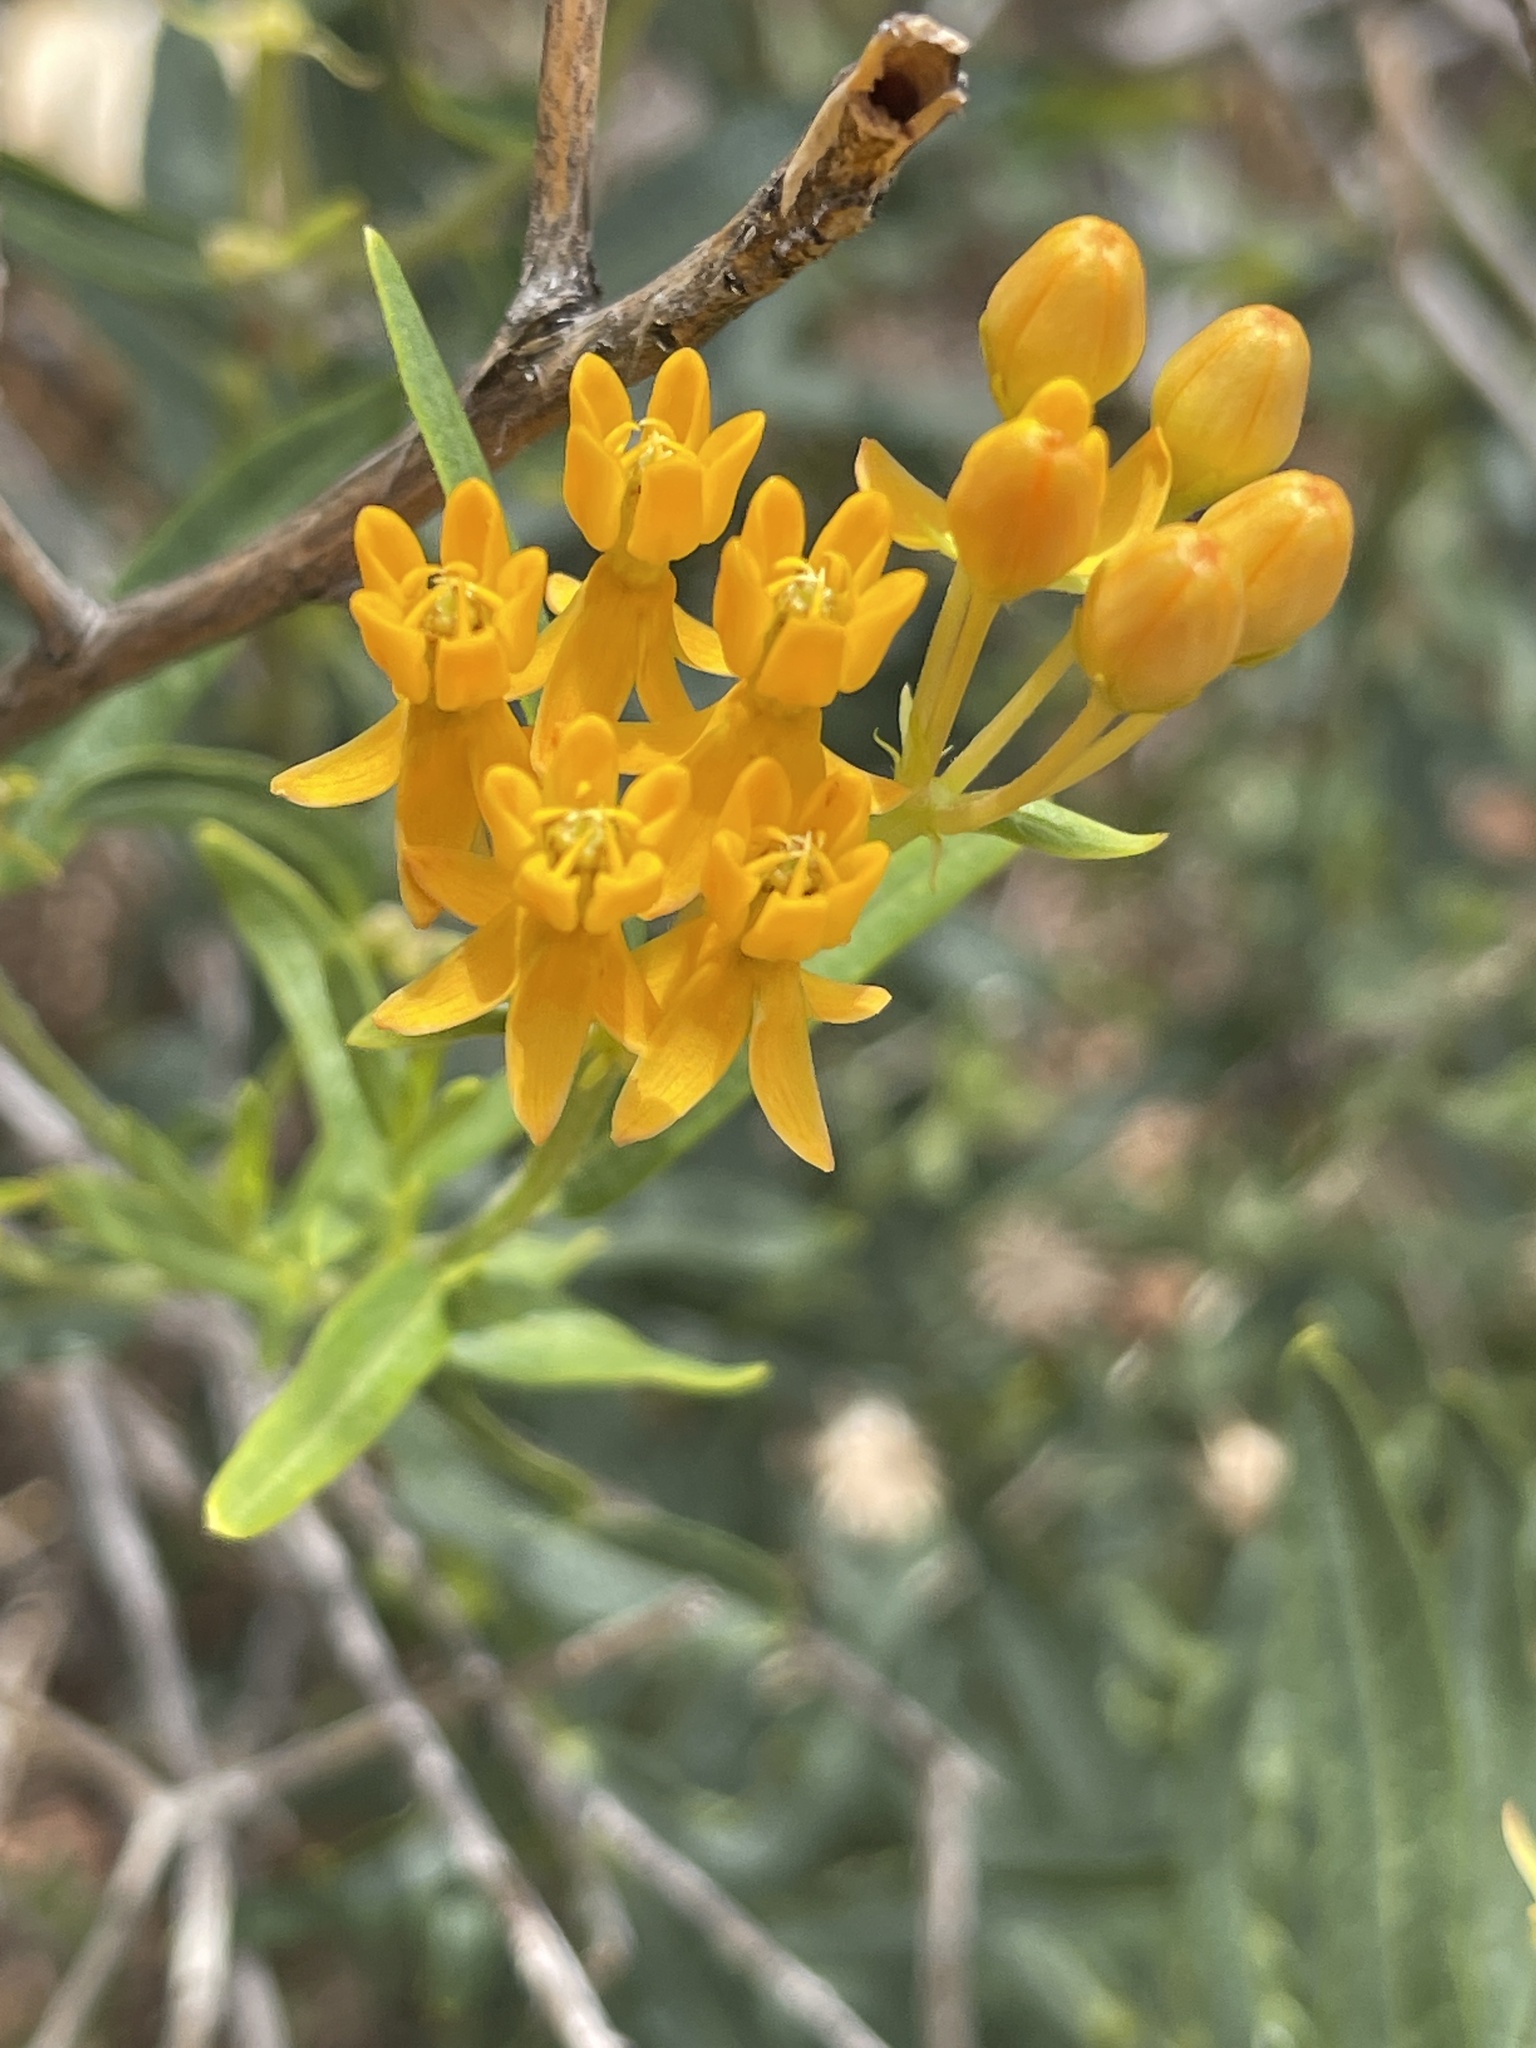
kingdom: Plantae
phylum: Tracheophyta
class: Magnoliopsida
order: Gentianales
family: Apocynaceae
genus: Asclepias
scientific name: Asclepias tuberosa
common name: Butterfly milkweed
